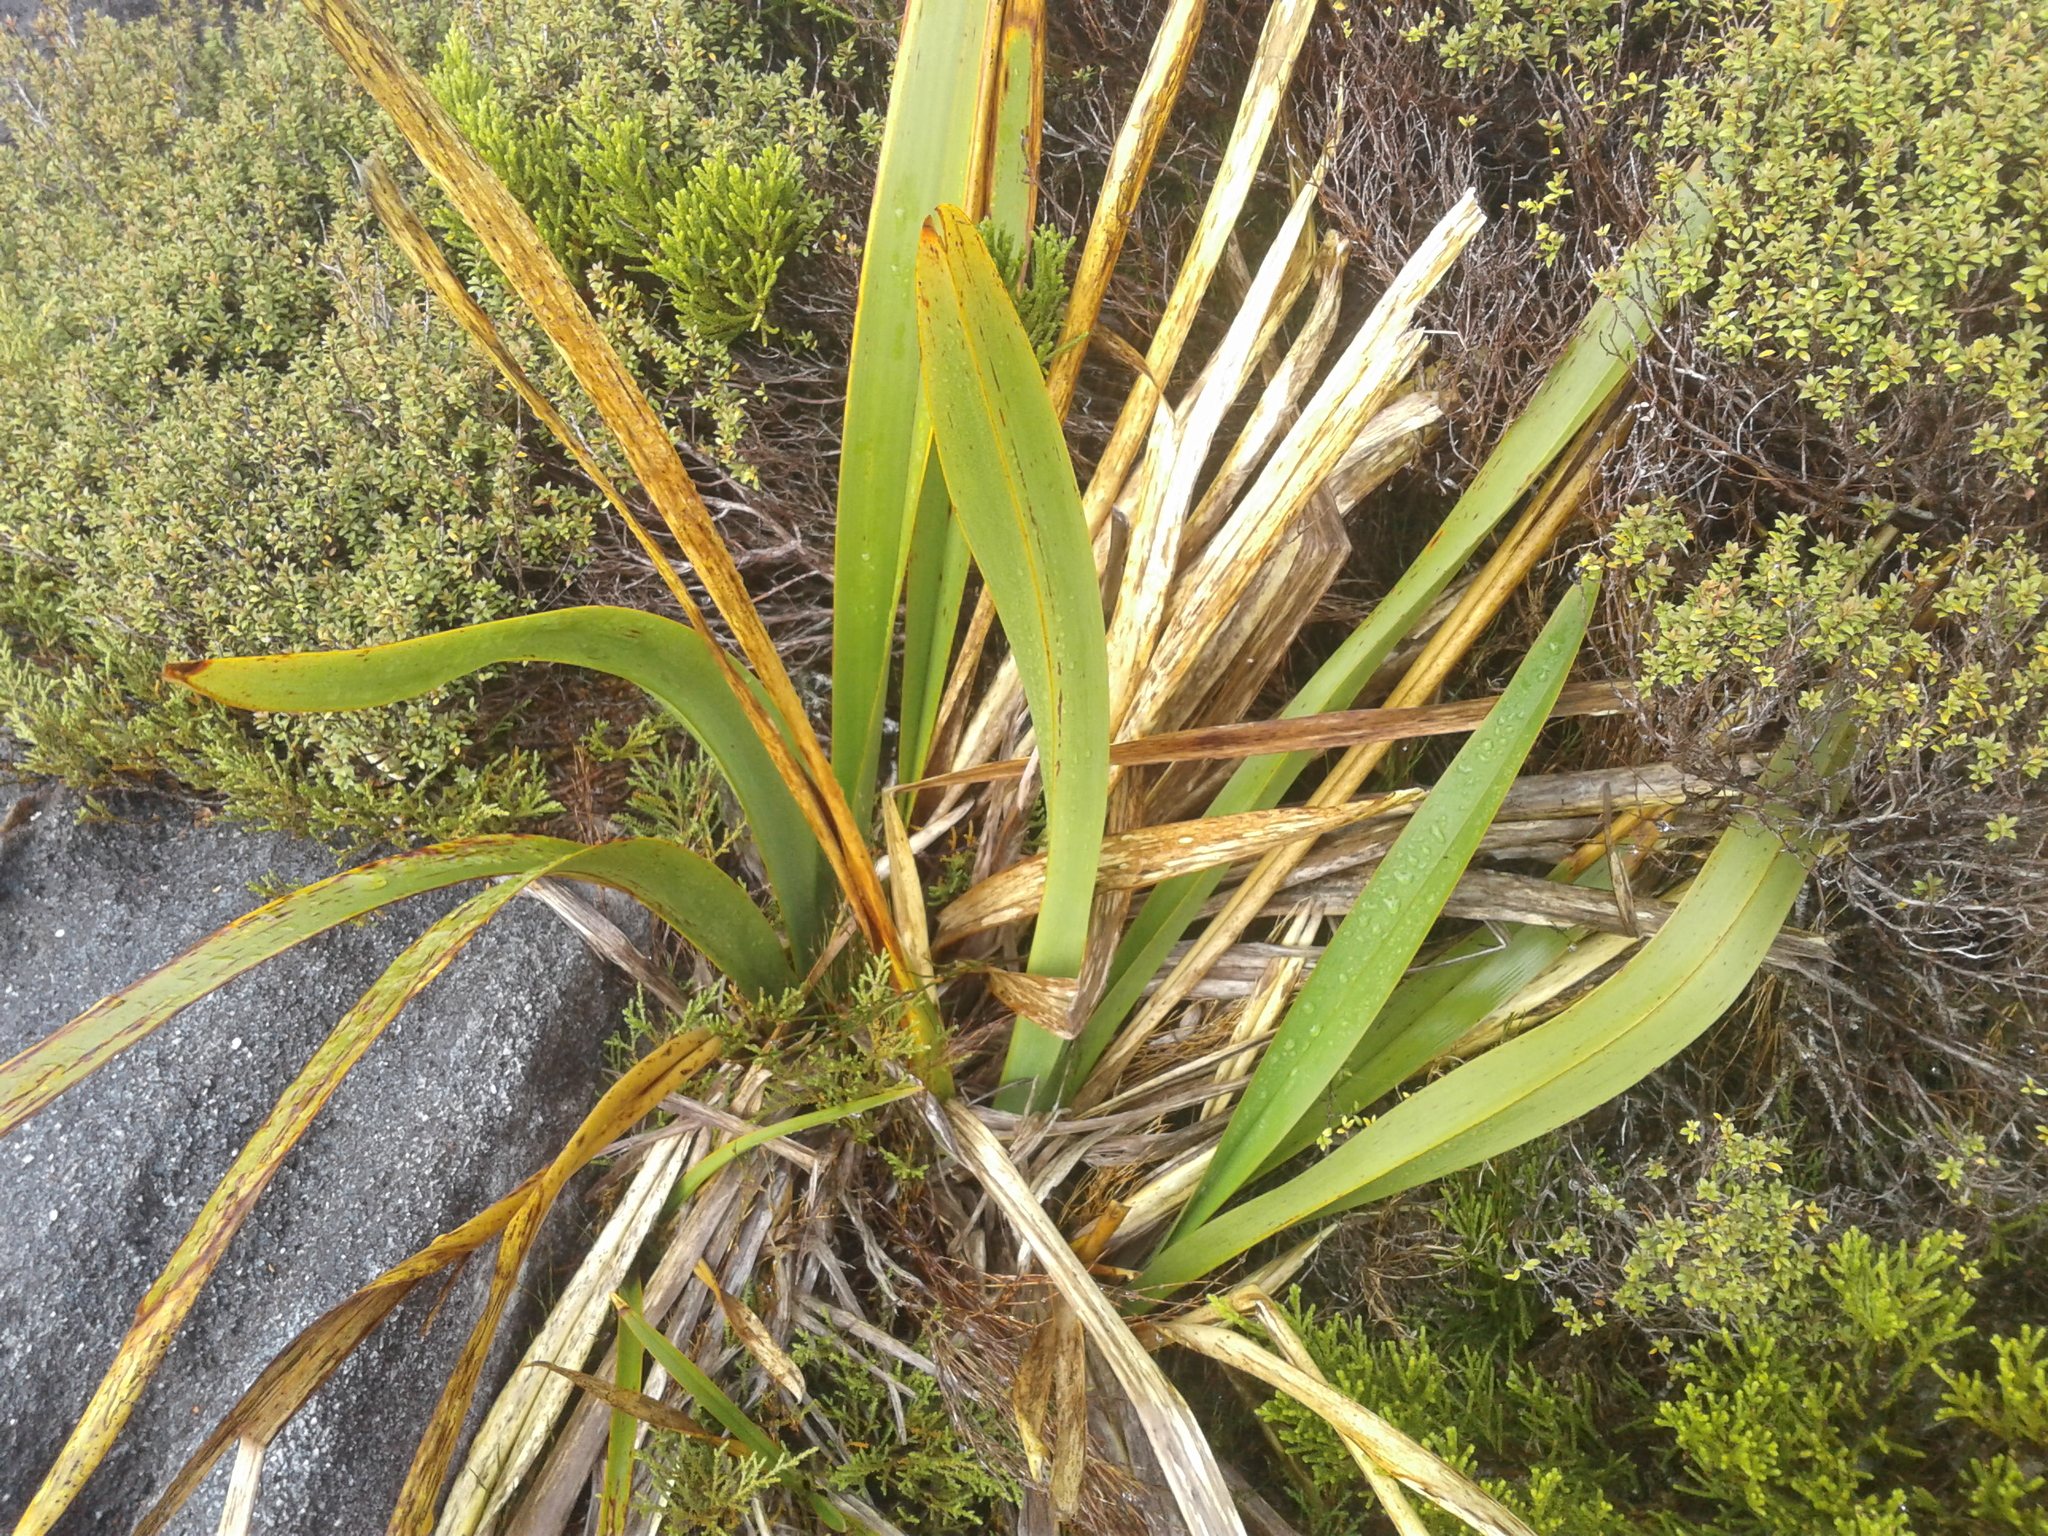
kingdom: Plantae
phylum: Tracheophyta
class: Liliopsida
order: Asparagales
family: Asphodelaceae
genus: Phormium
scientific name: Phormium colensoi
